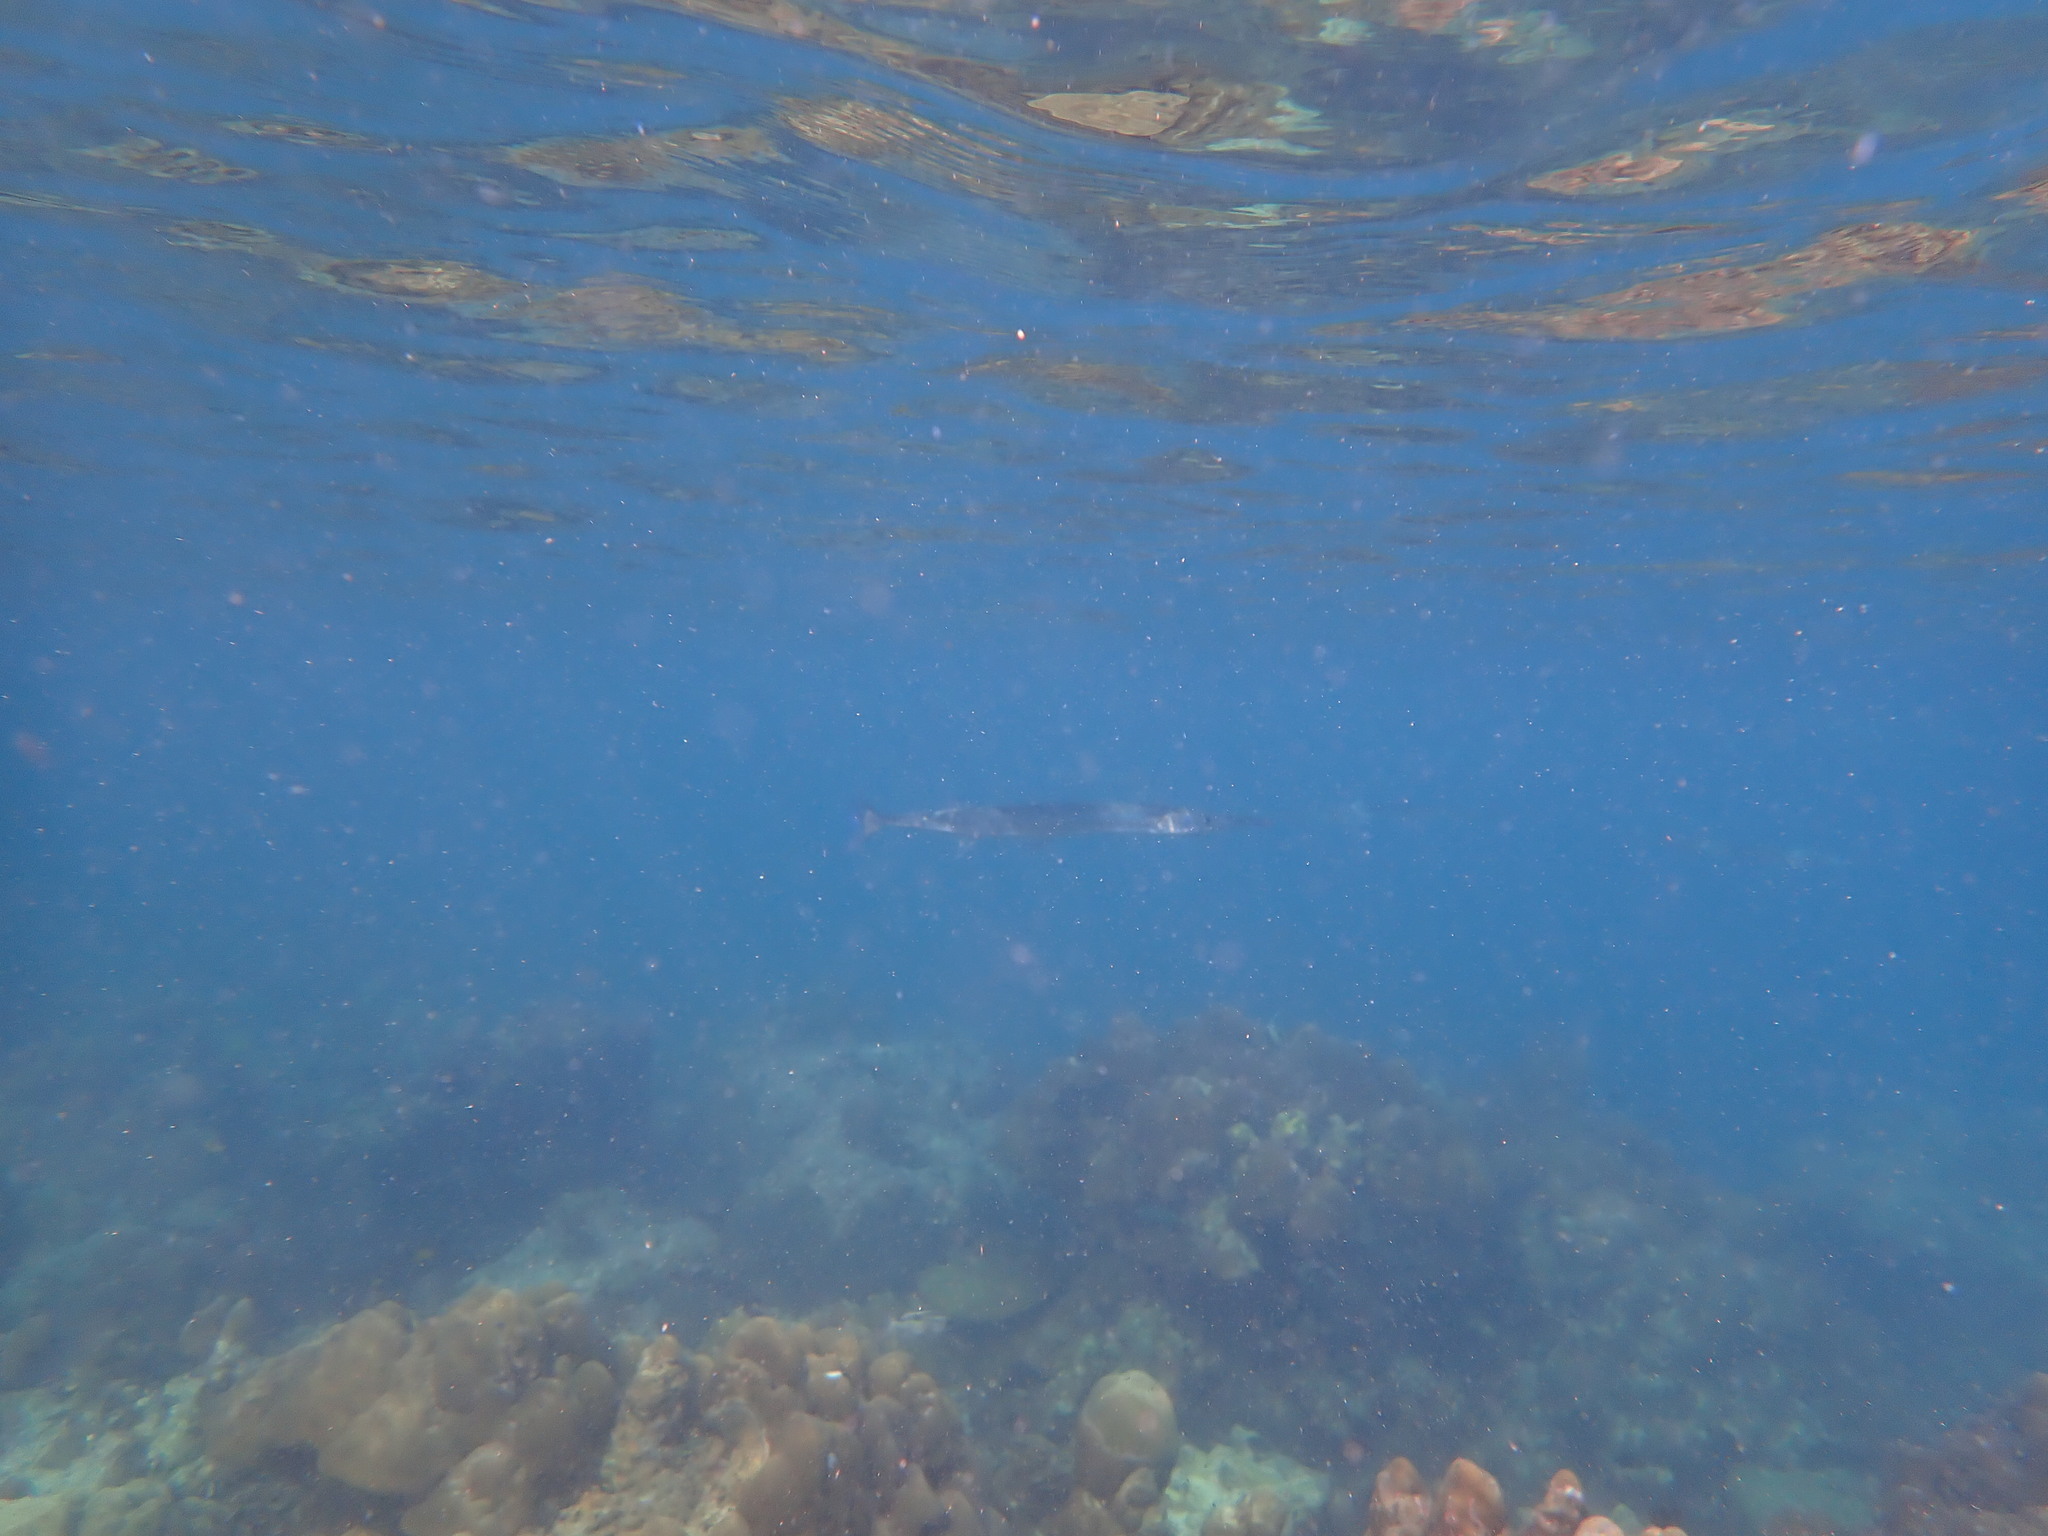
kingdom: Animalia
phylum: Chordata
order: Beloniformes
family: Belonidae
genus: Tylosurus
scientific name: Tylosurus crocodilus
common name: Houndfish
